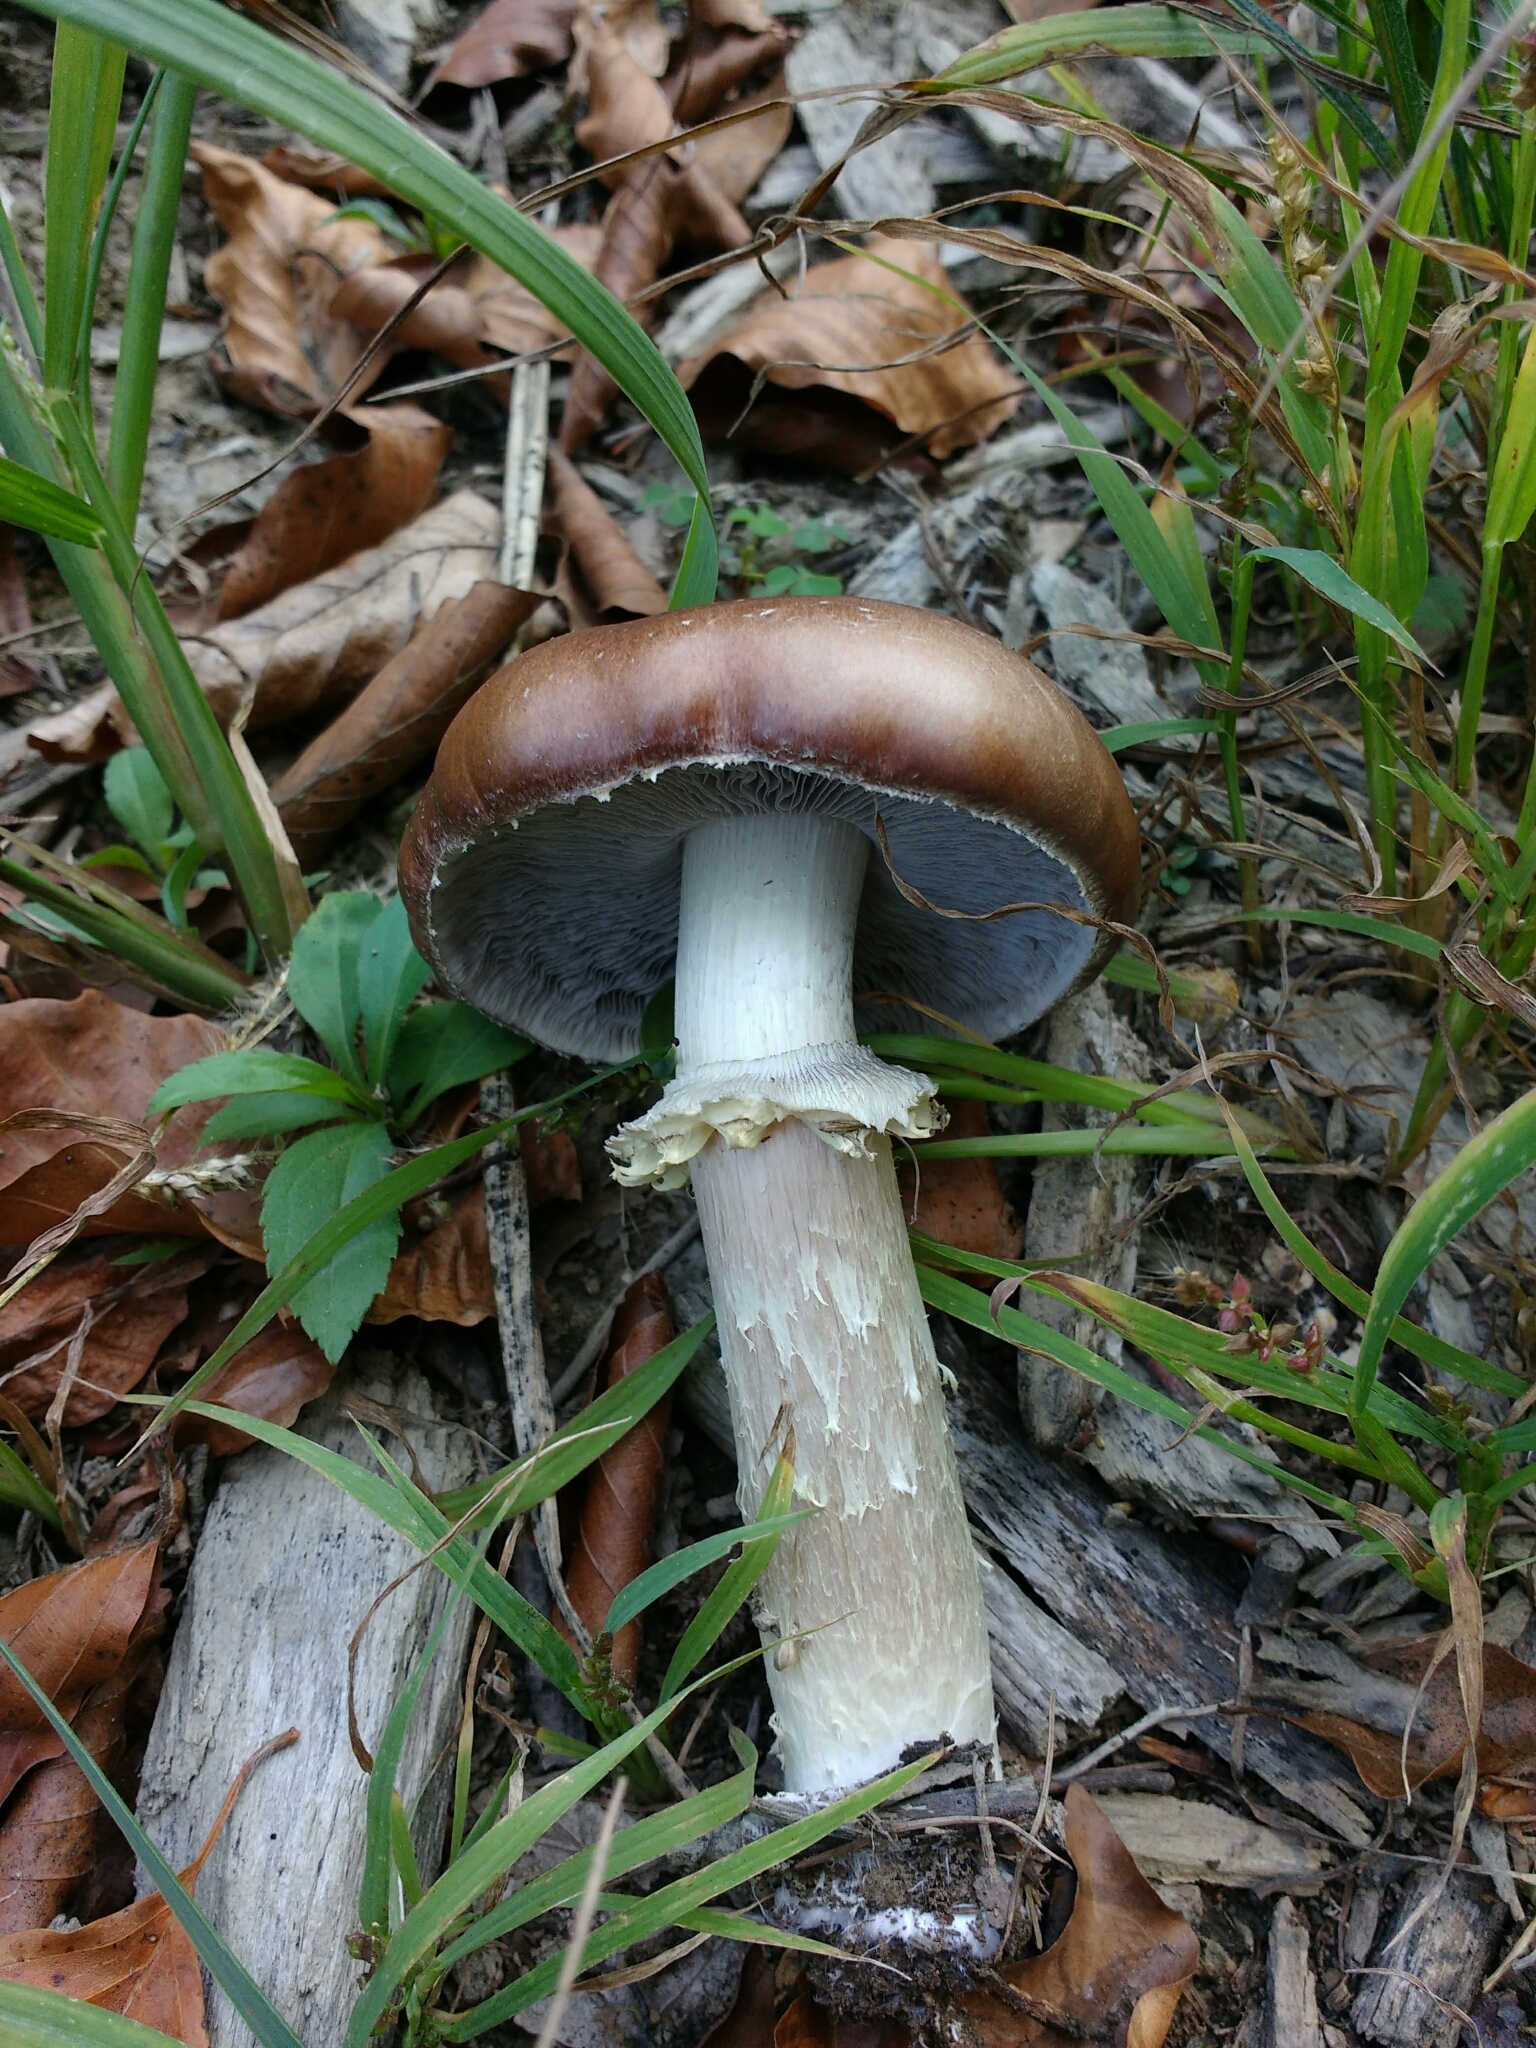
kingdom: Fungi
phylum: Basidiomycota
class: Agaricomycetes
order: Agaricales
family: Strophariaceae
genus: Stropharia
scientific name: Stropharia rugosoannulata
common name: Wine roundhead
